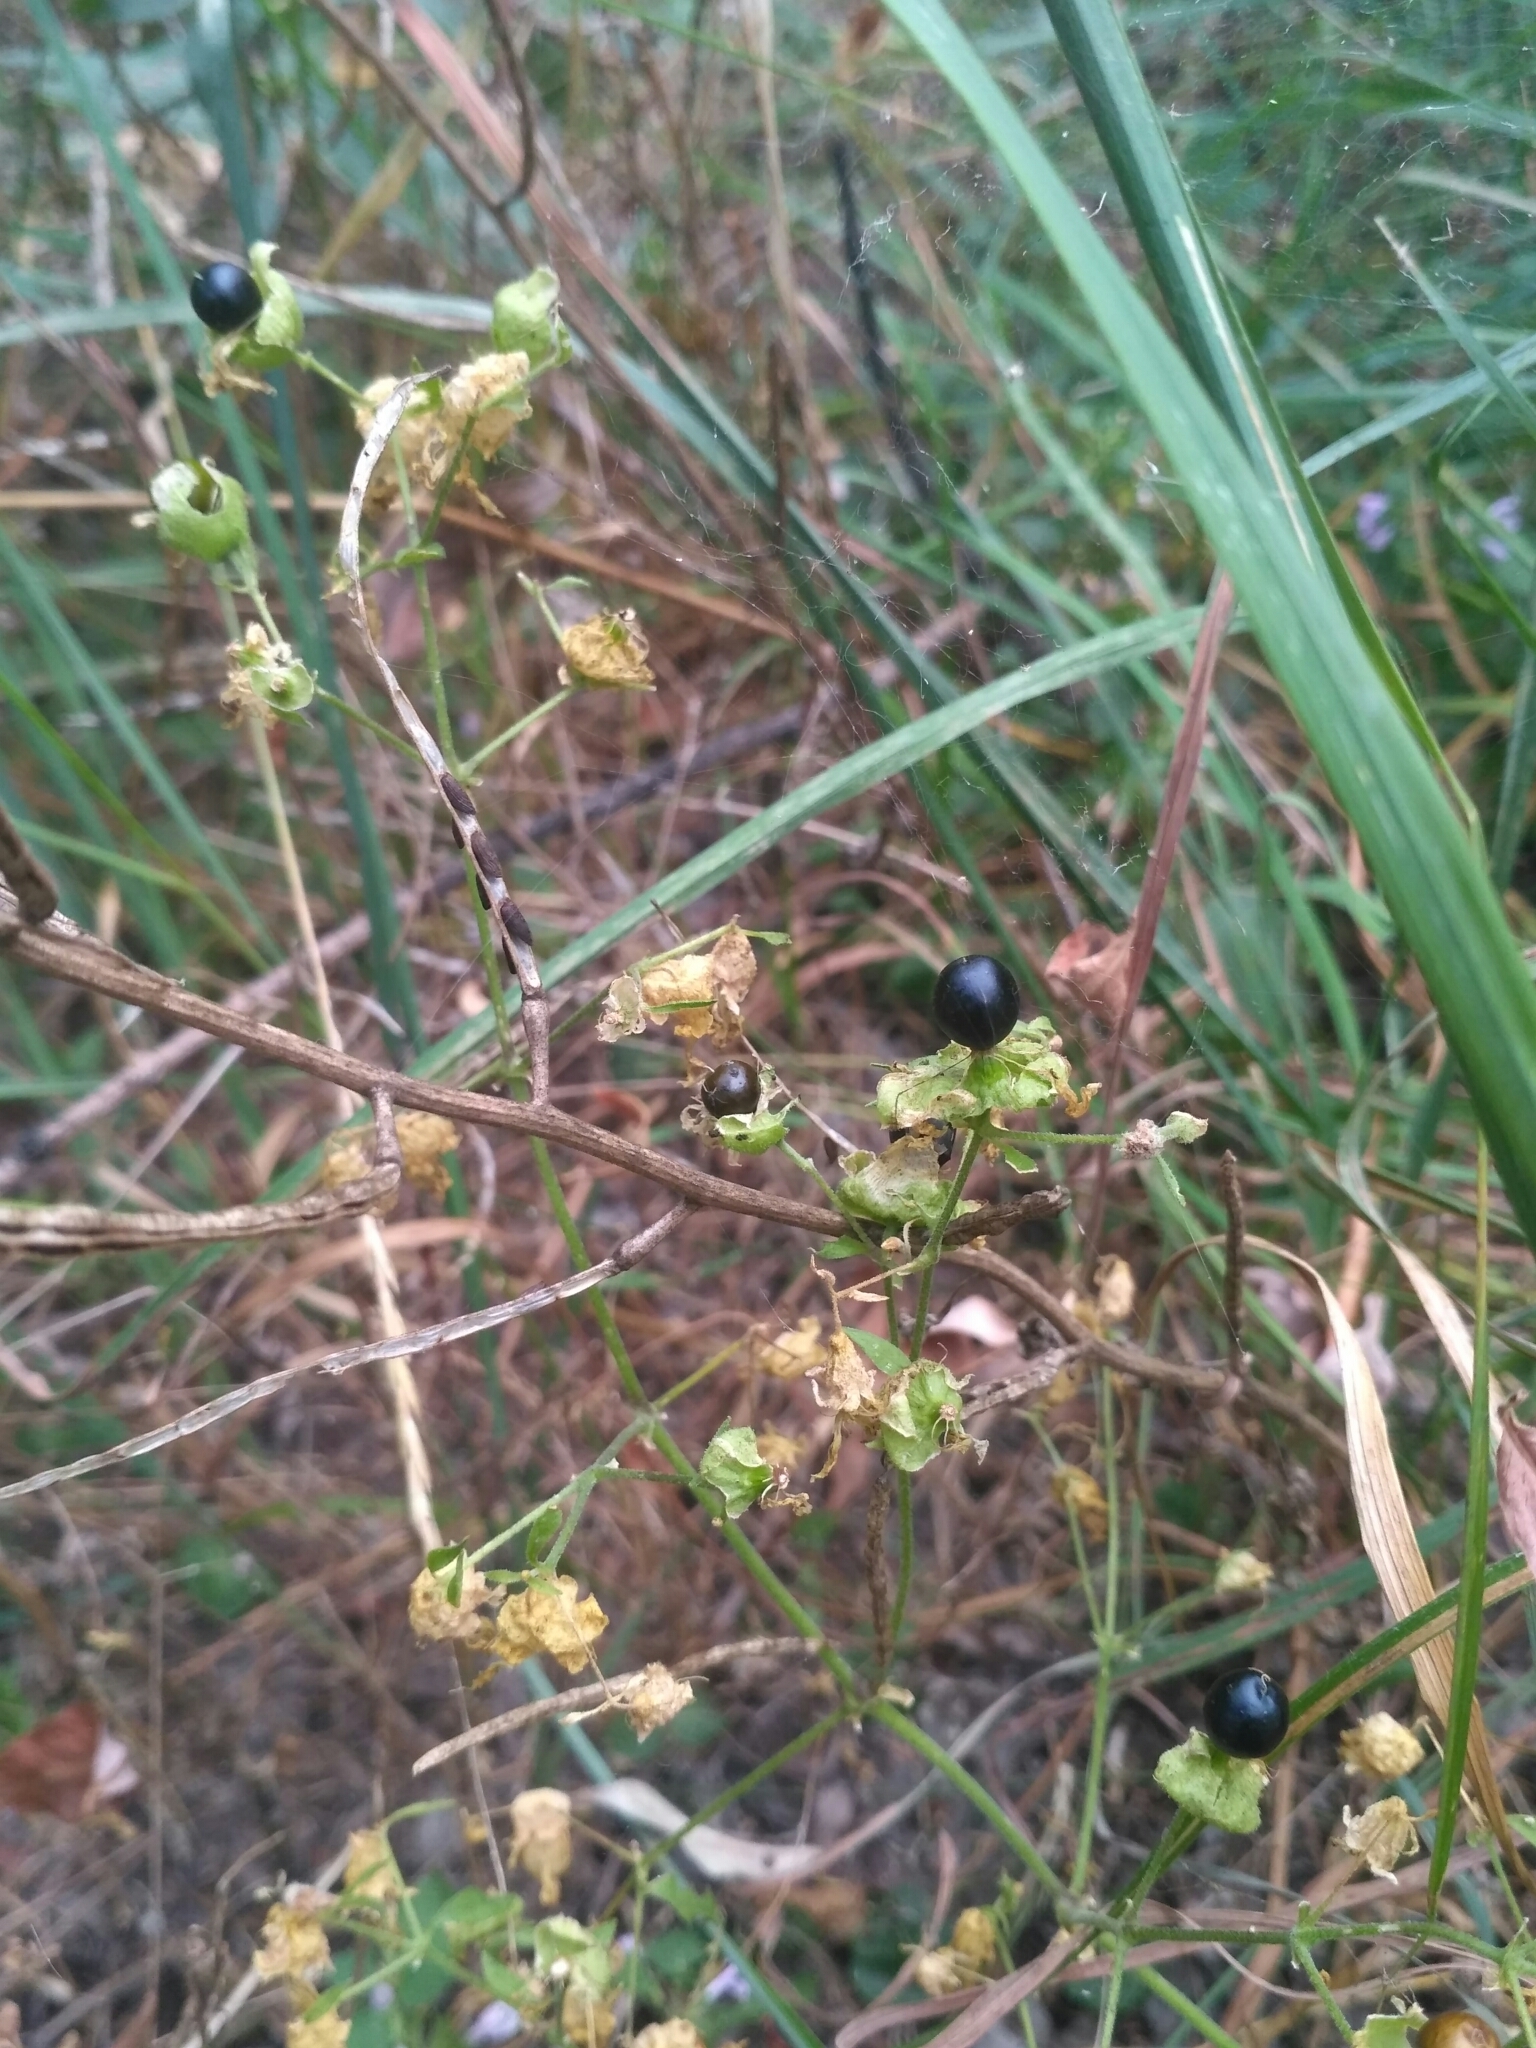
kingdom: Plantae
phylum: Tracheophyta
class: Magnoliopsida
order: Caryophyllales
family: Caryophyllaceae
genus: Silene
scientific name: Silene baccifera
